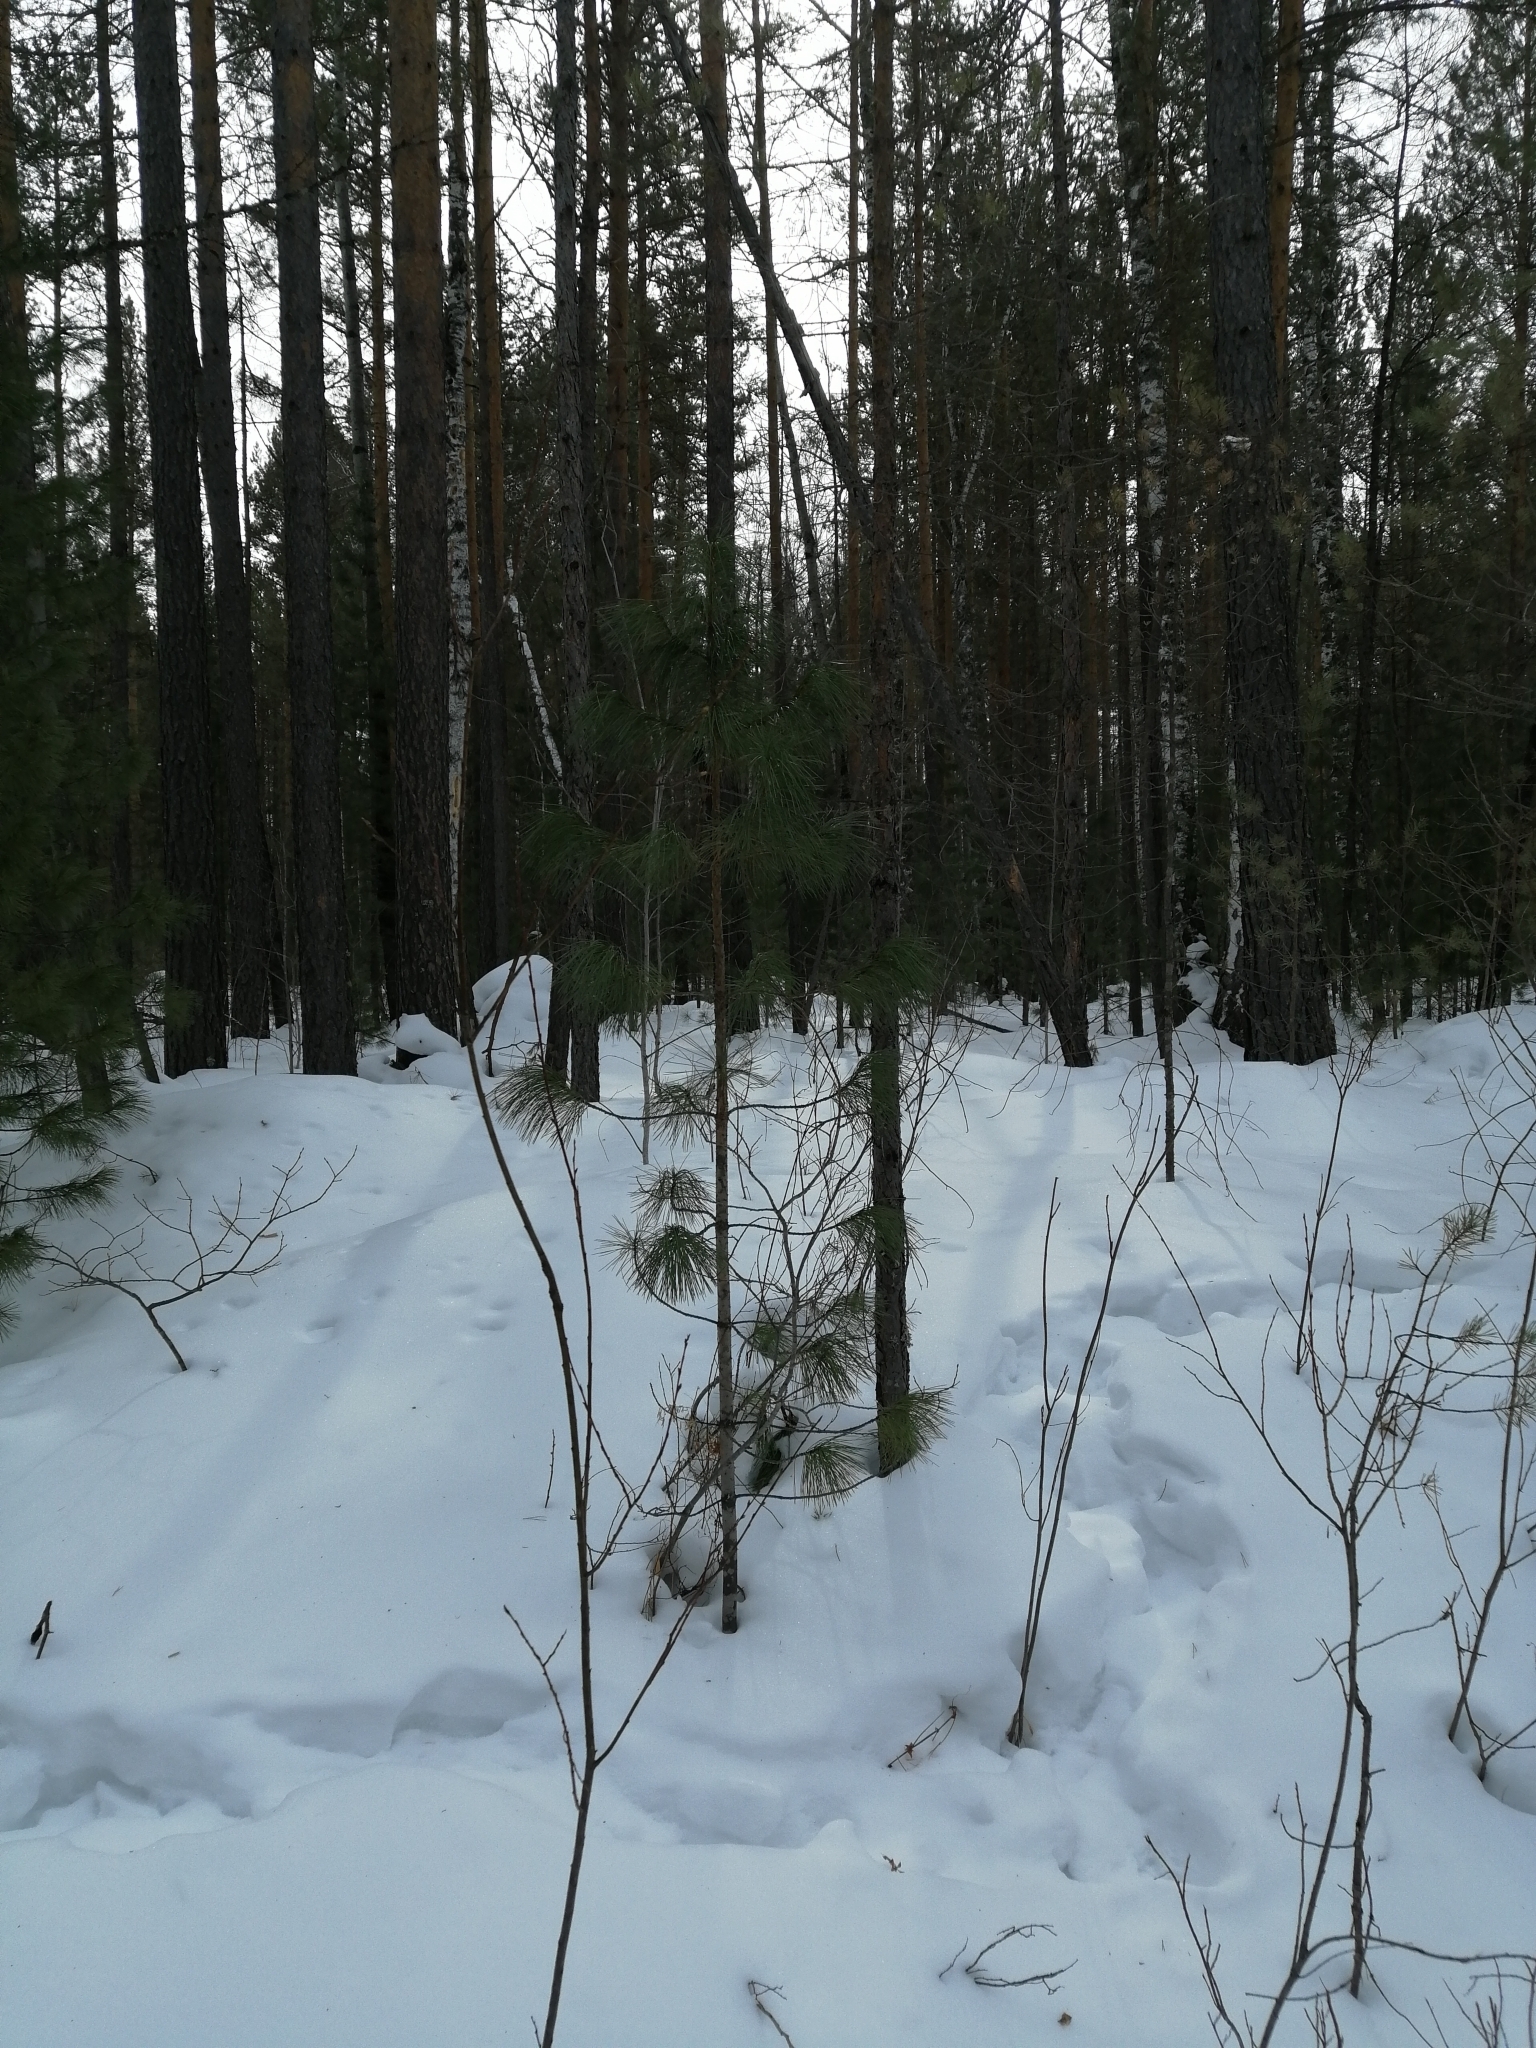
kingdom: Plantae
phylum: Tracheophyta
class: Pinopsida
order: Pinales
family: Pinaceae
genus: Pinus
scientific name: Pinus sibirica
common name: Siberian pine
